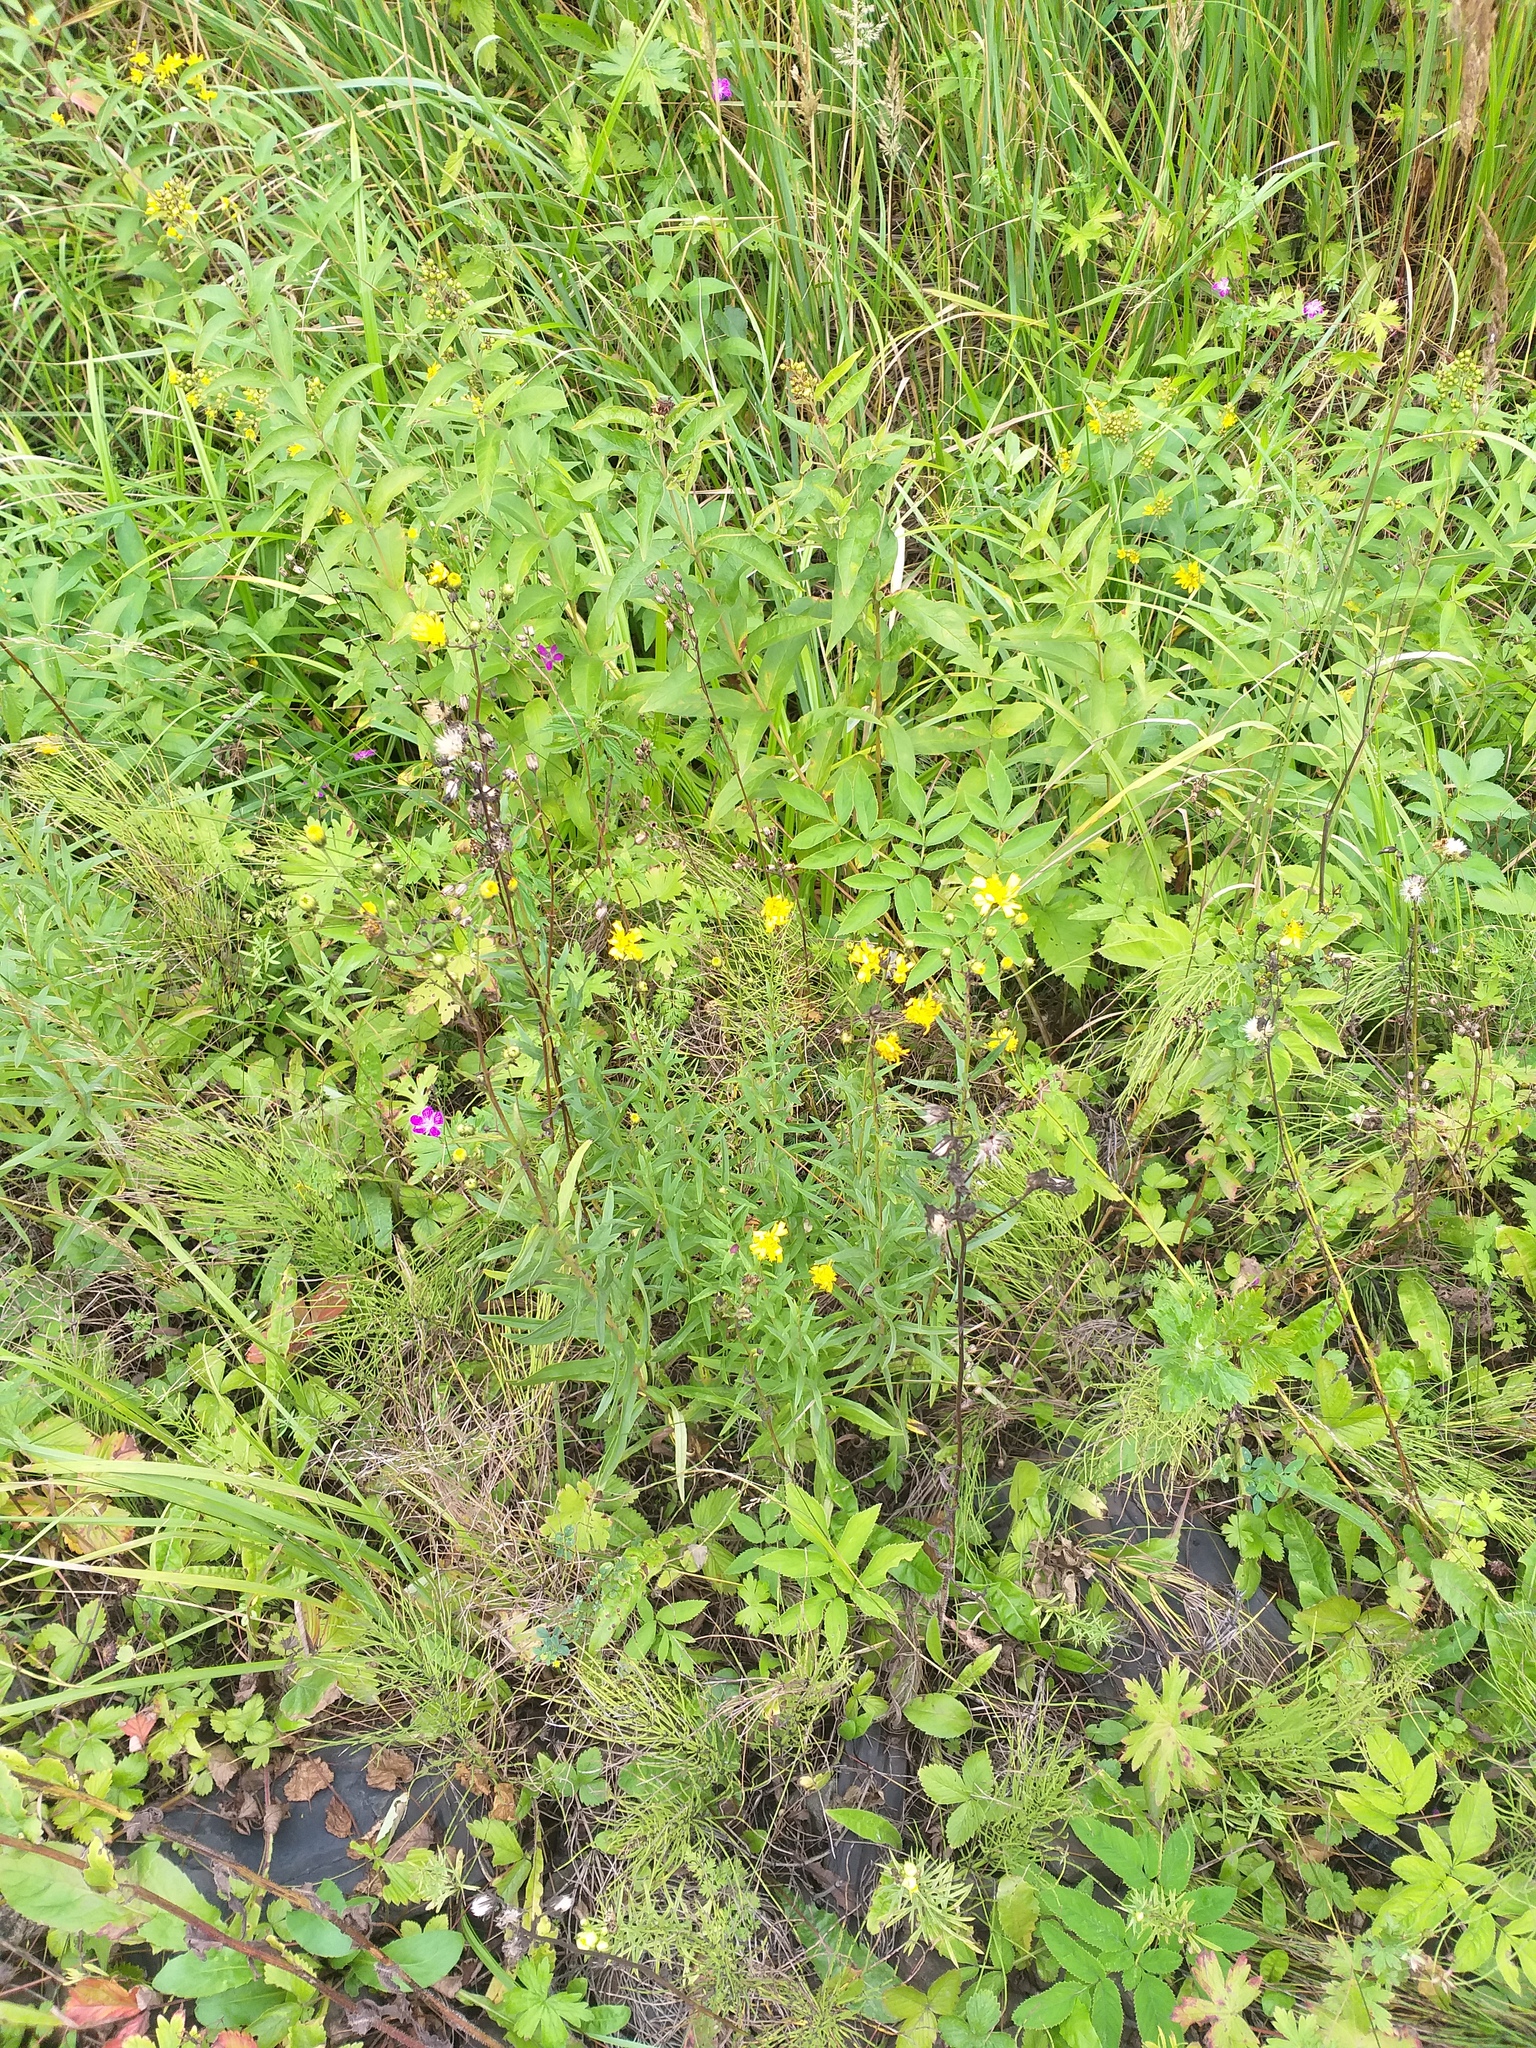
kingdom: Plantae
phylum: Tracheophyta
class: Magnoliopsida
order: Asterales
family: Asteraceae
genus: Hieracium
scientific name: Hieracium umbellatum
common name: Northern hawkweed
